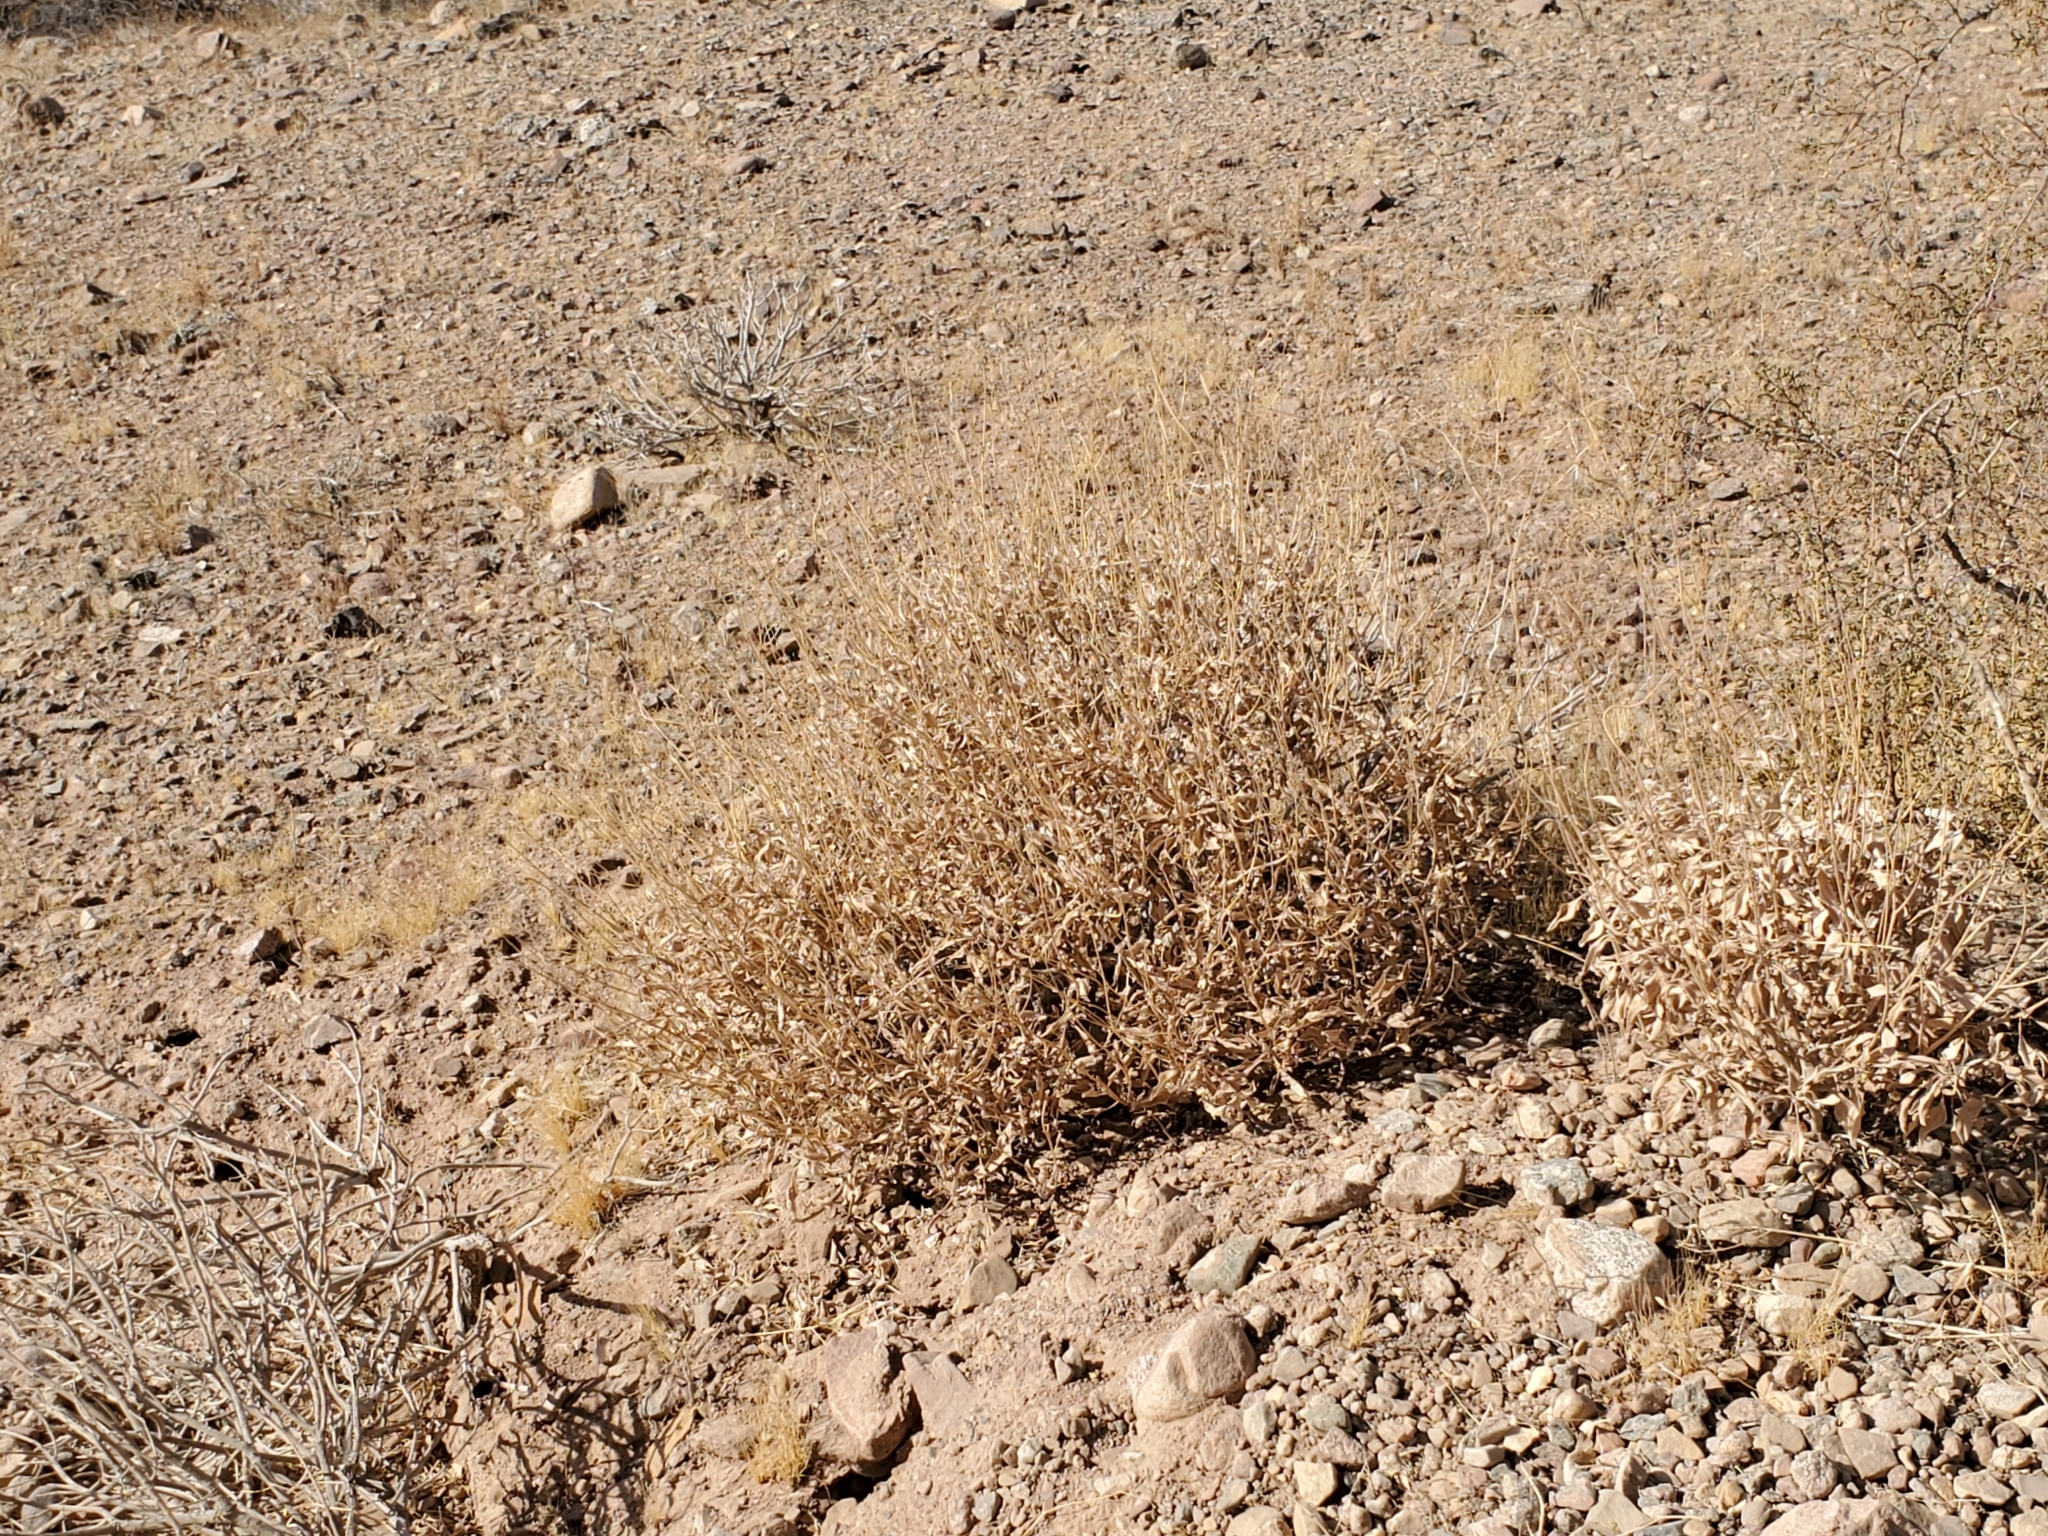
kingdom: Plantae
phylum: Tracheophyta
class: Magnoliopsida
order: Asterales
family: Asteraceae
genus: Encelia
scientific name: Encelia farinosa
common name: Brittlebush
